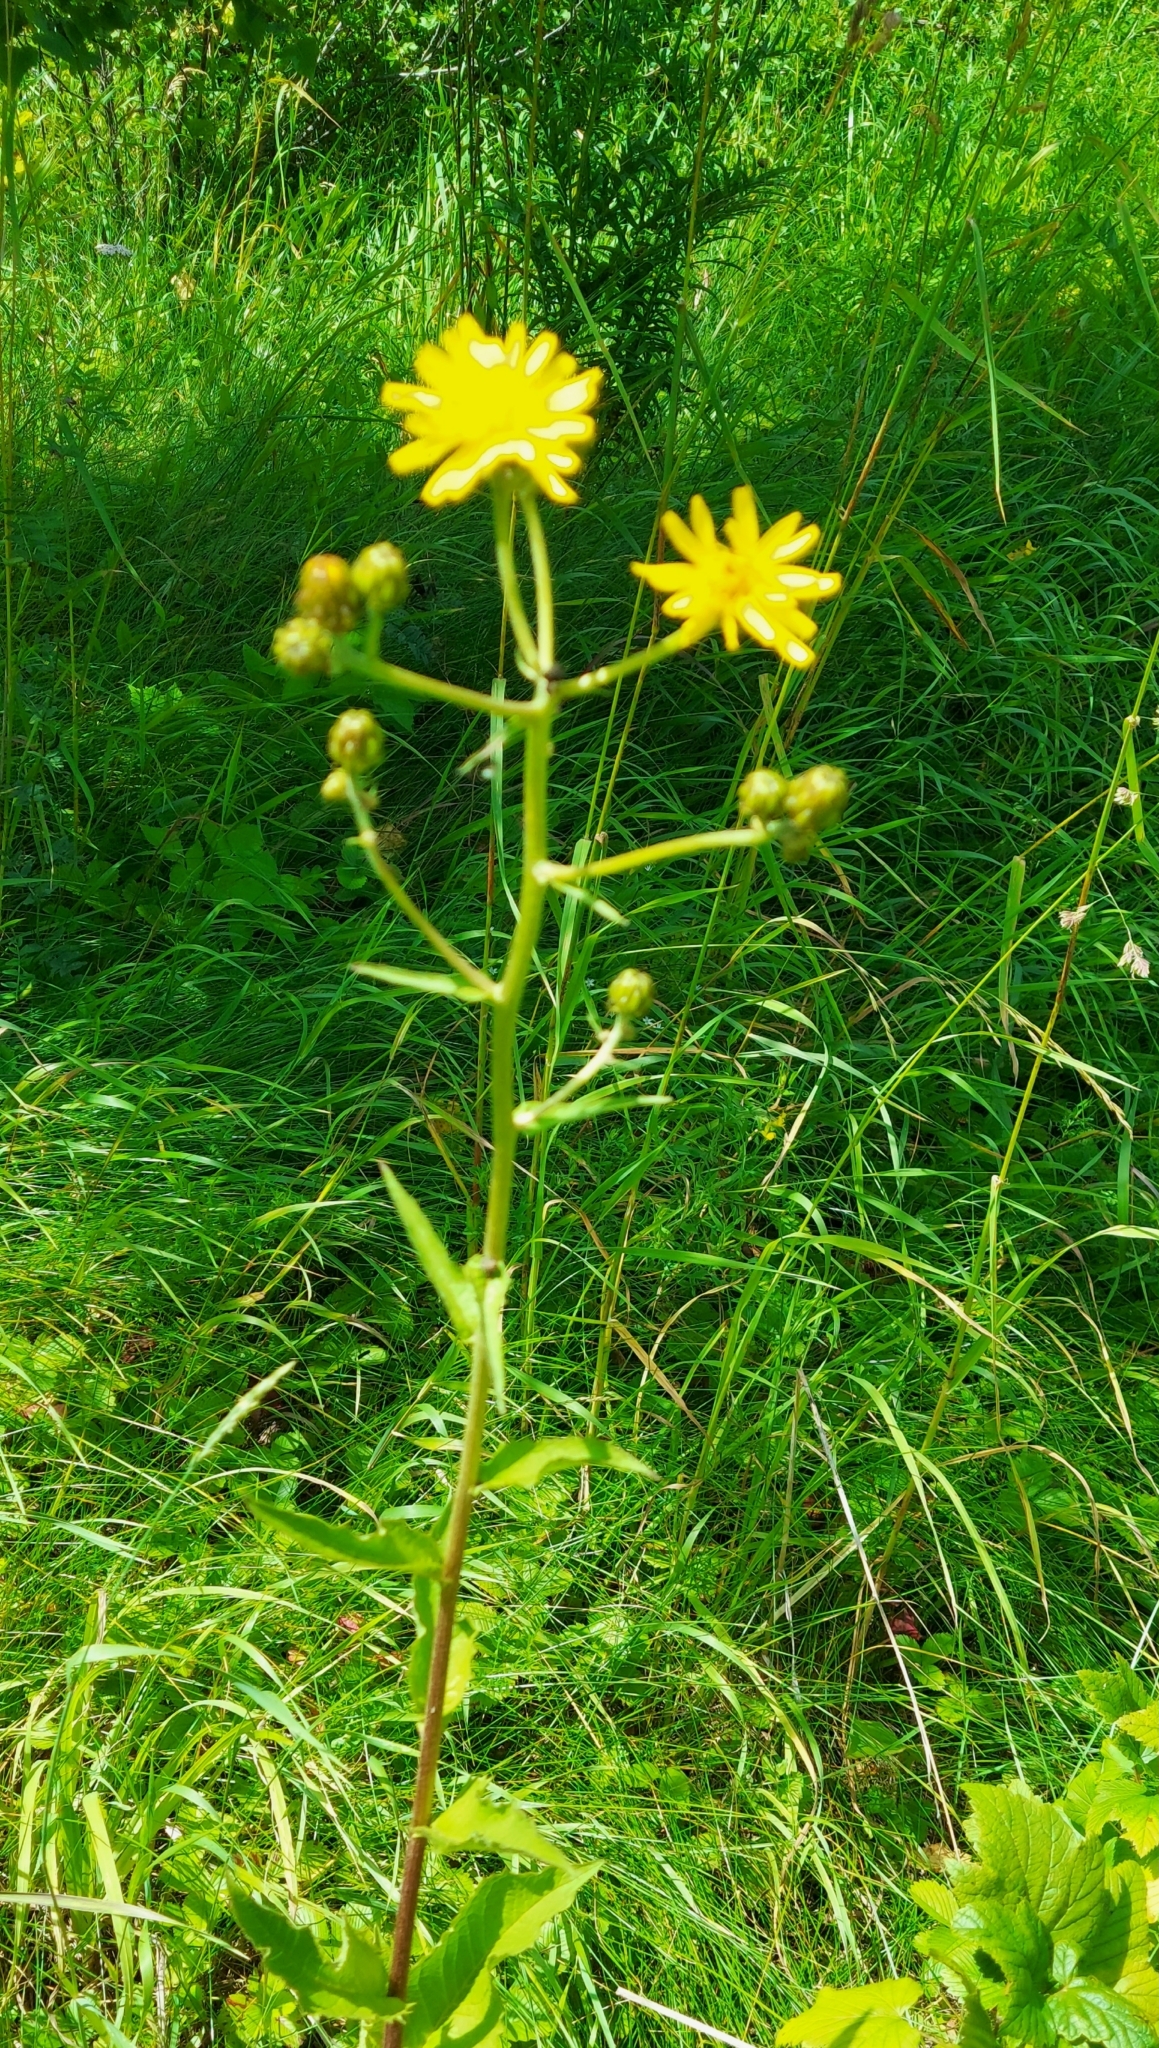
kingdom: Plantae
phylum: Tracheophyta
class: Magnoliopsida
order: Asterales
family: Asteraceae
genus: Picris
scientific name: Picris hieracioides
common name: Hawkweed oxtongue
